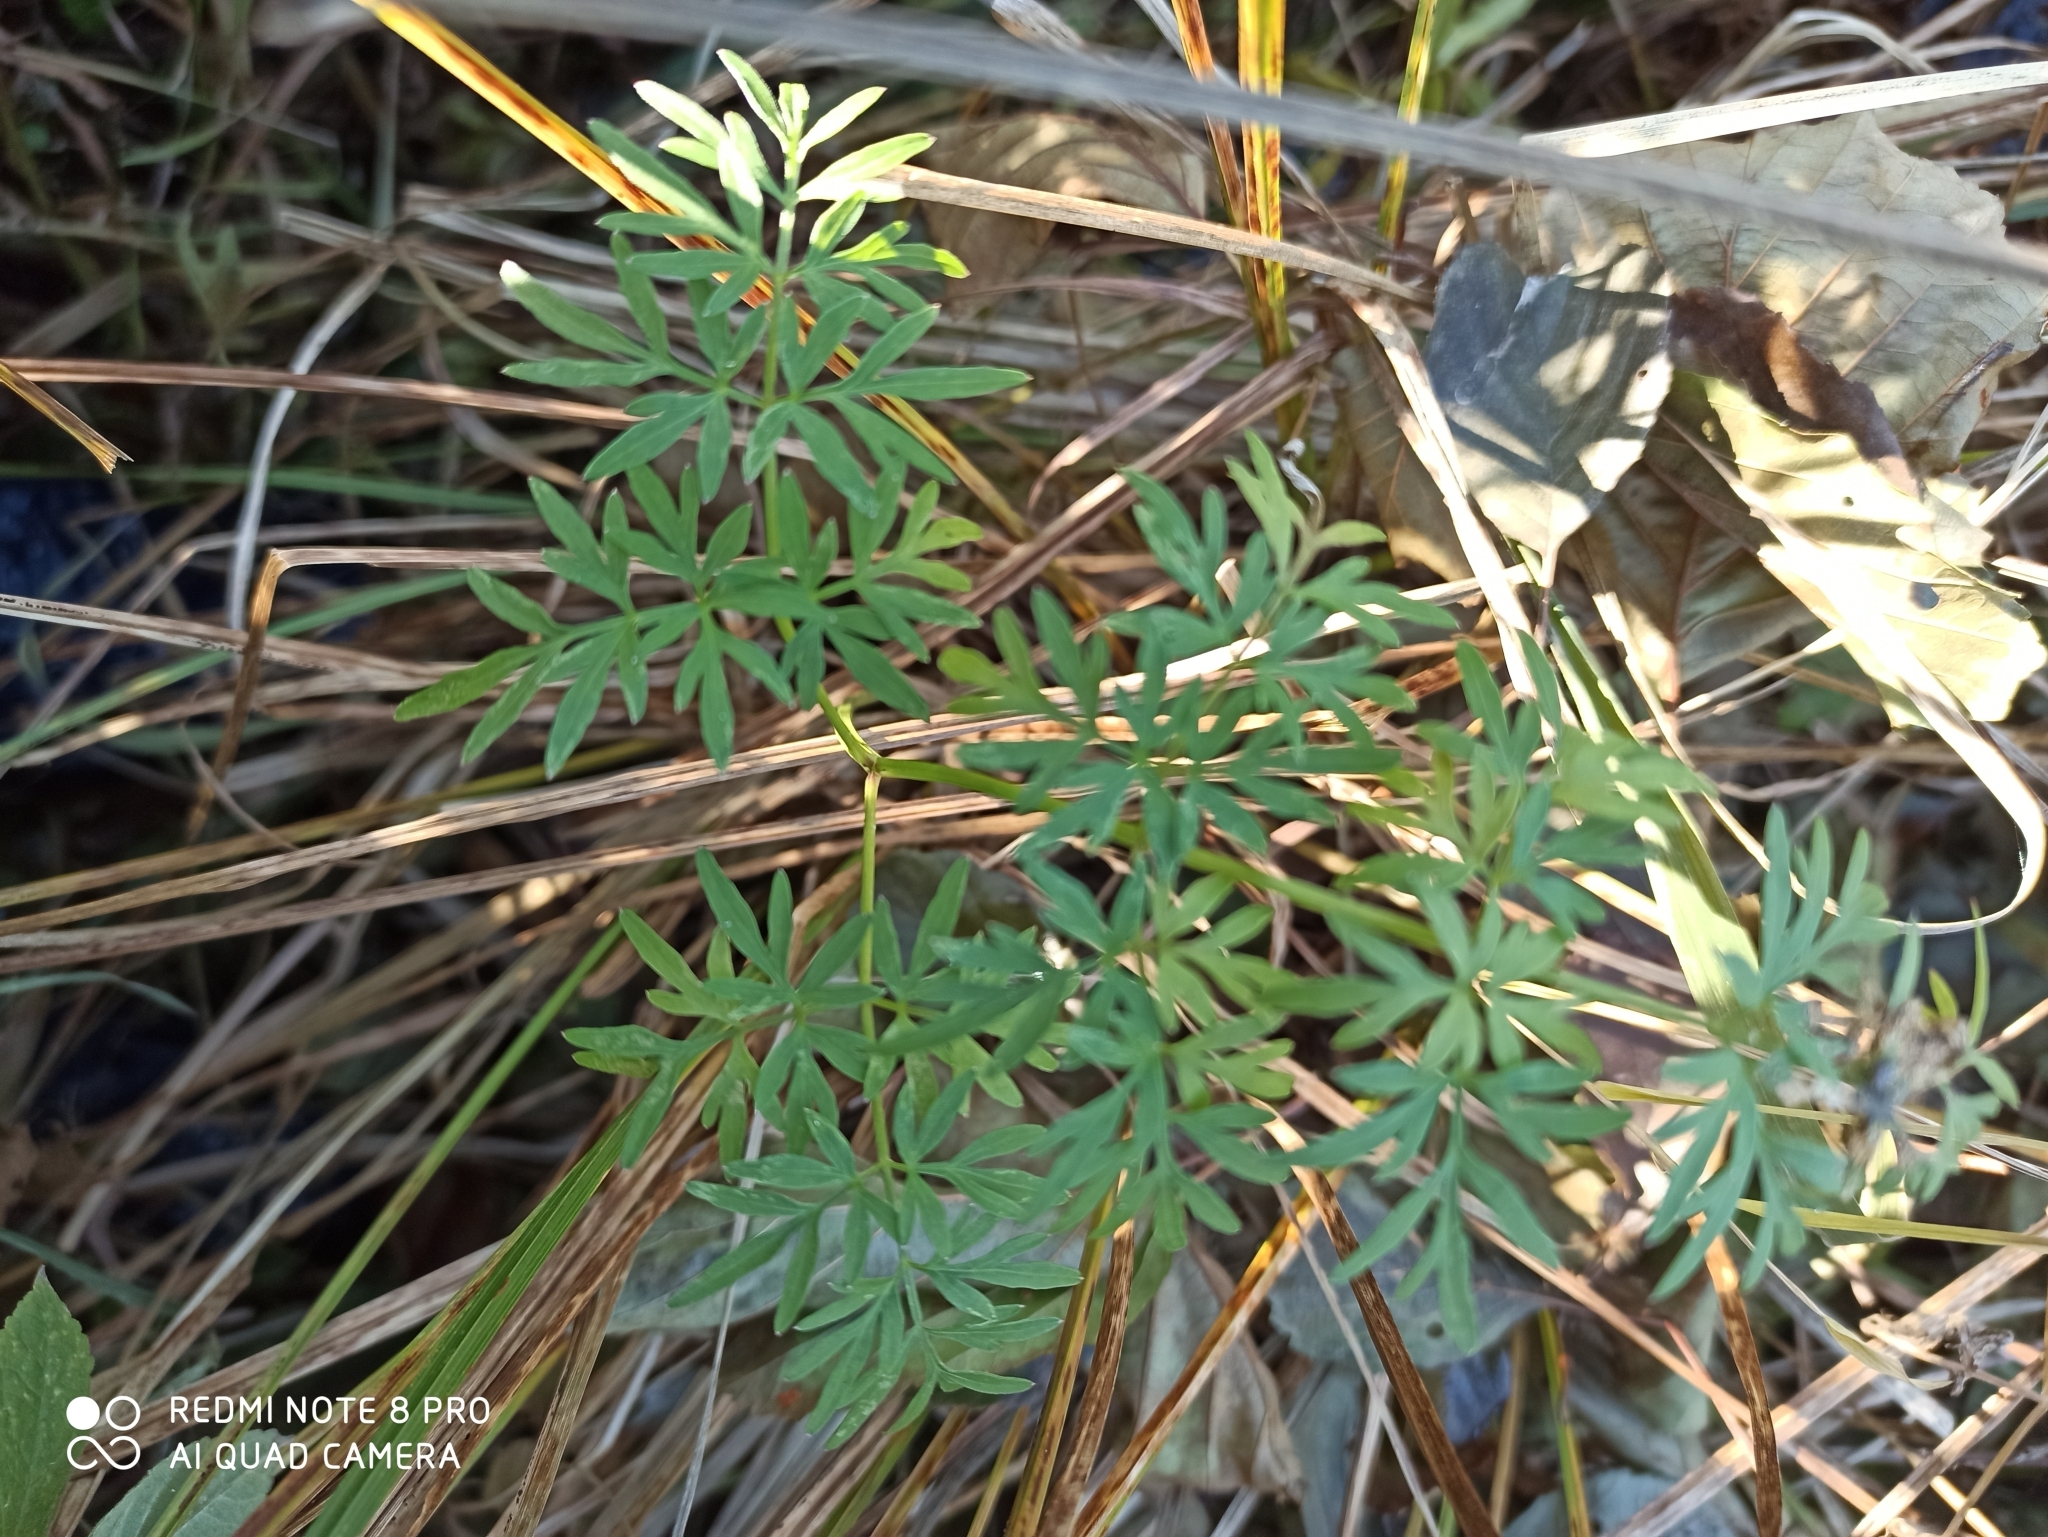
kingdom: Plantae
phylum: Tracheophyta
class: Magnoliopsida
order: Apiales
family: Apiaceae
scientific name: Apiaceae
